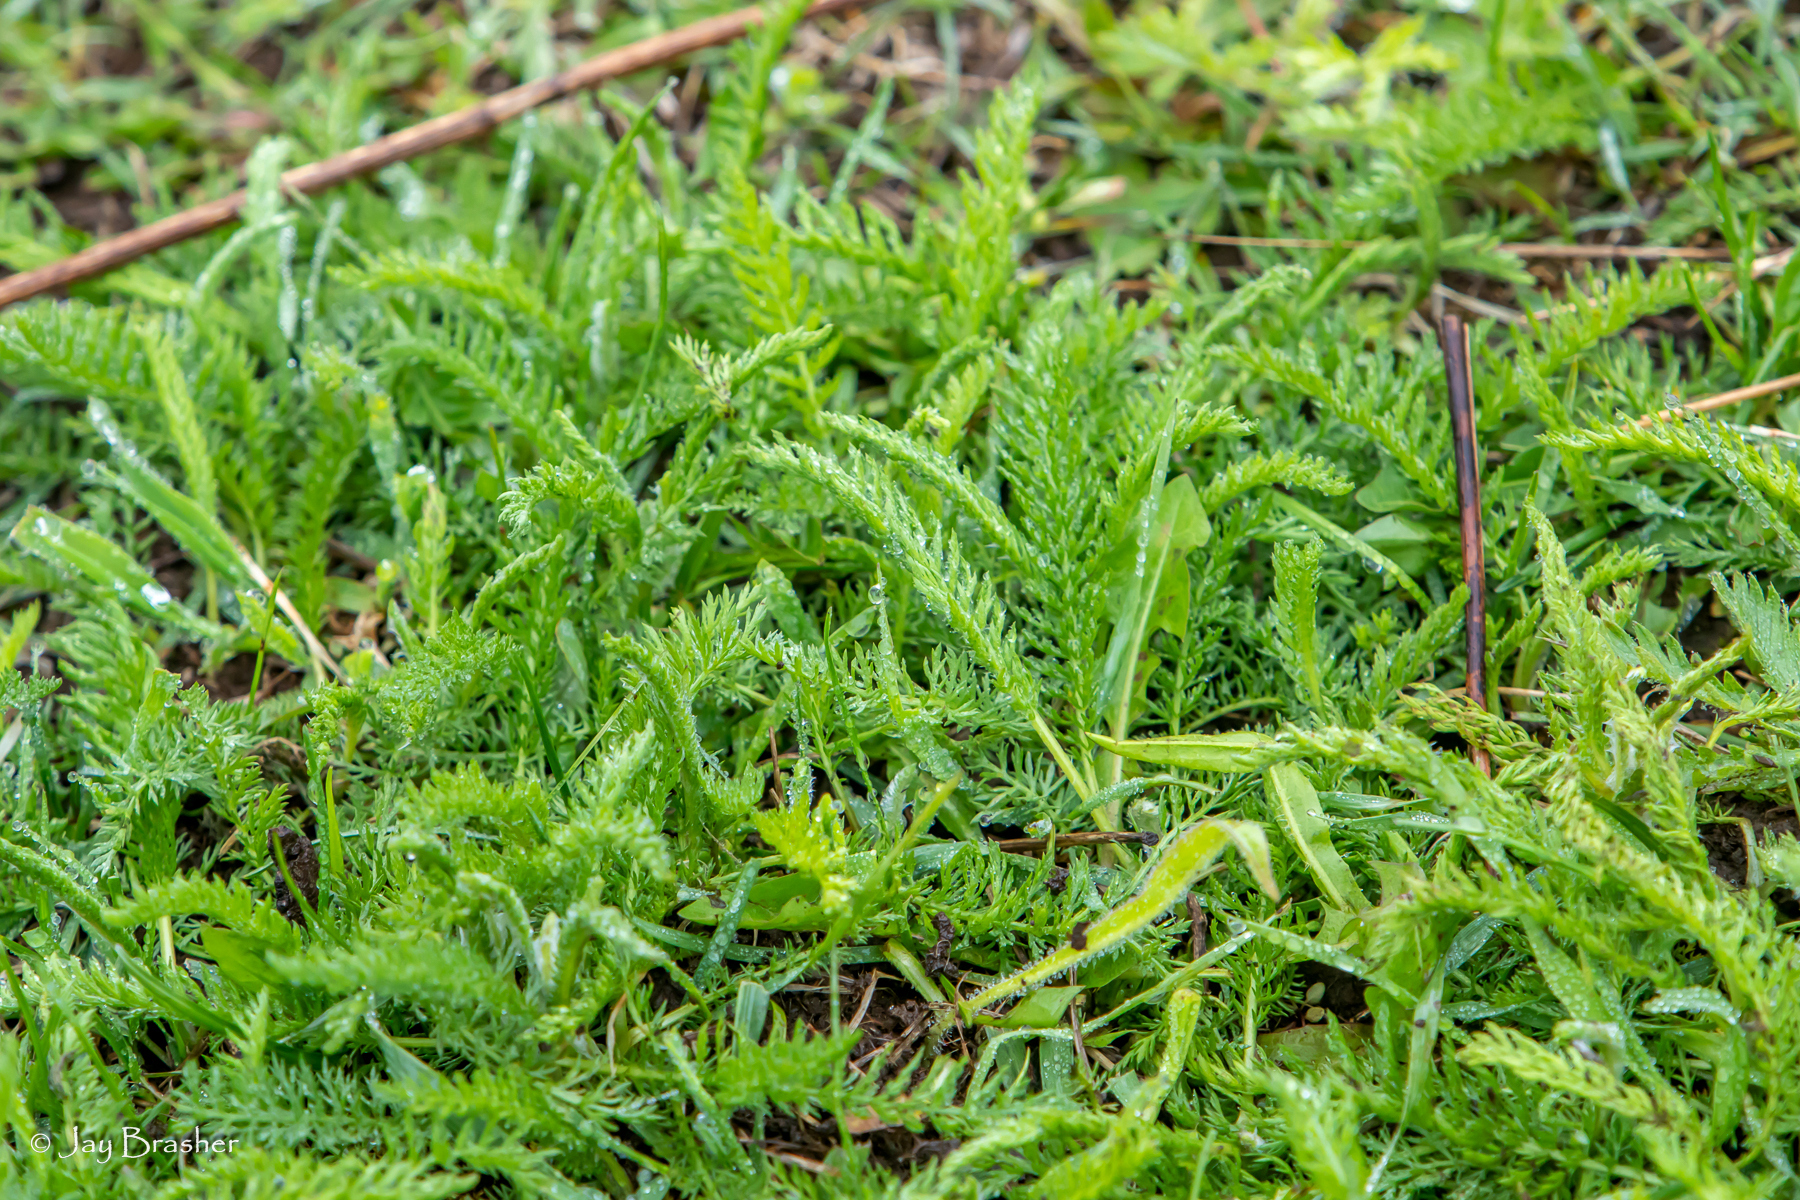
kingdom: Plantae
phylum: Tracheophyta
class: Magnoliopsida
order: Asterales
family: Asteraceae
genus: Achillea
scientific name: Achillea millefolium
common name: Yarrow
